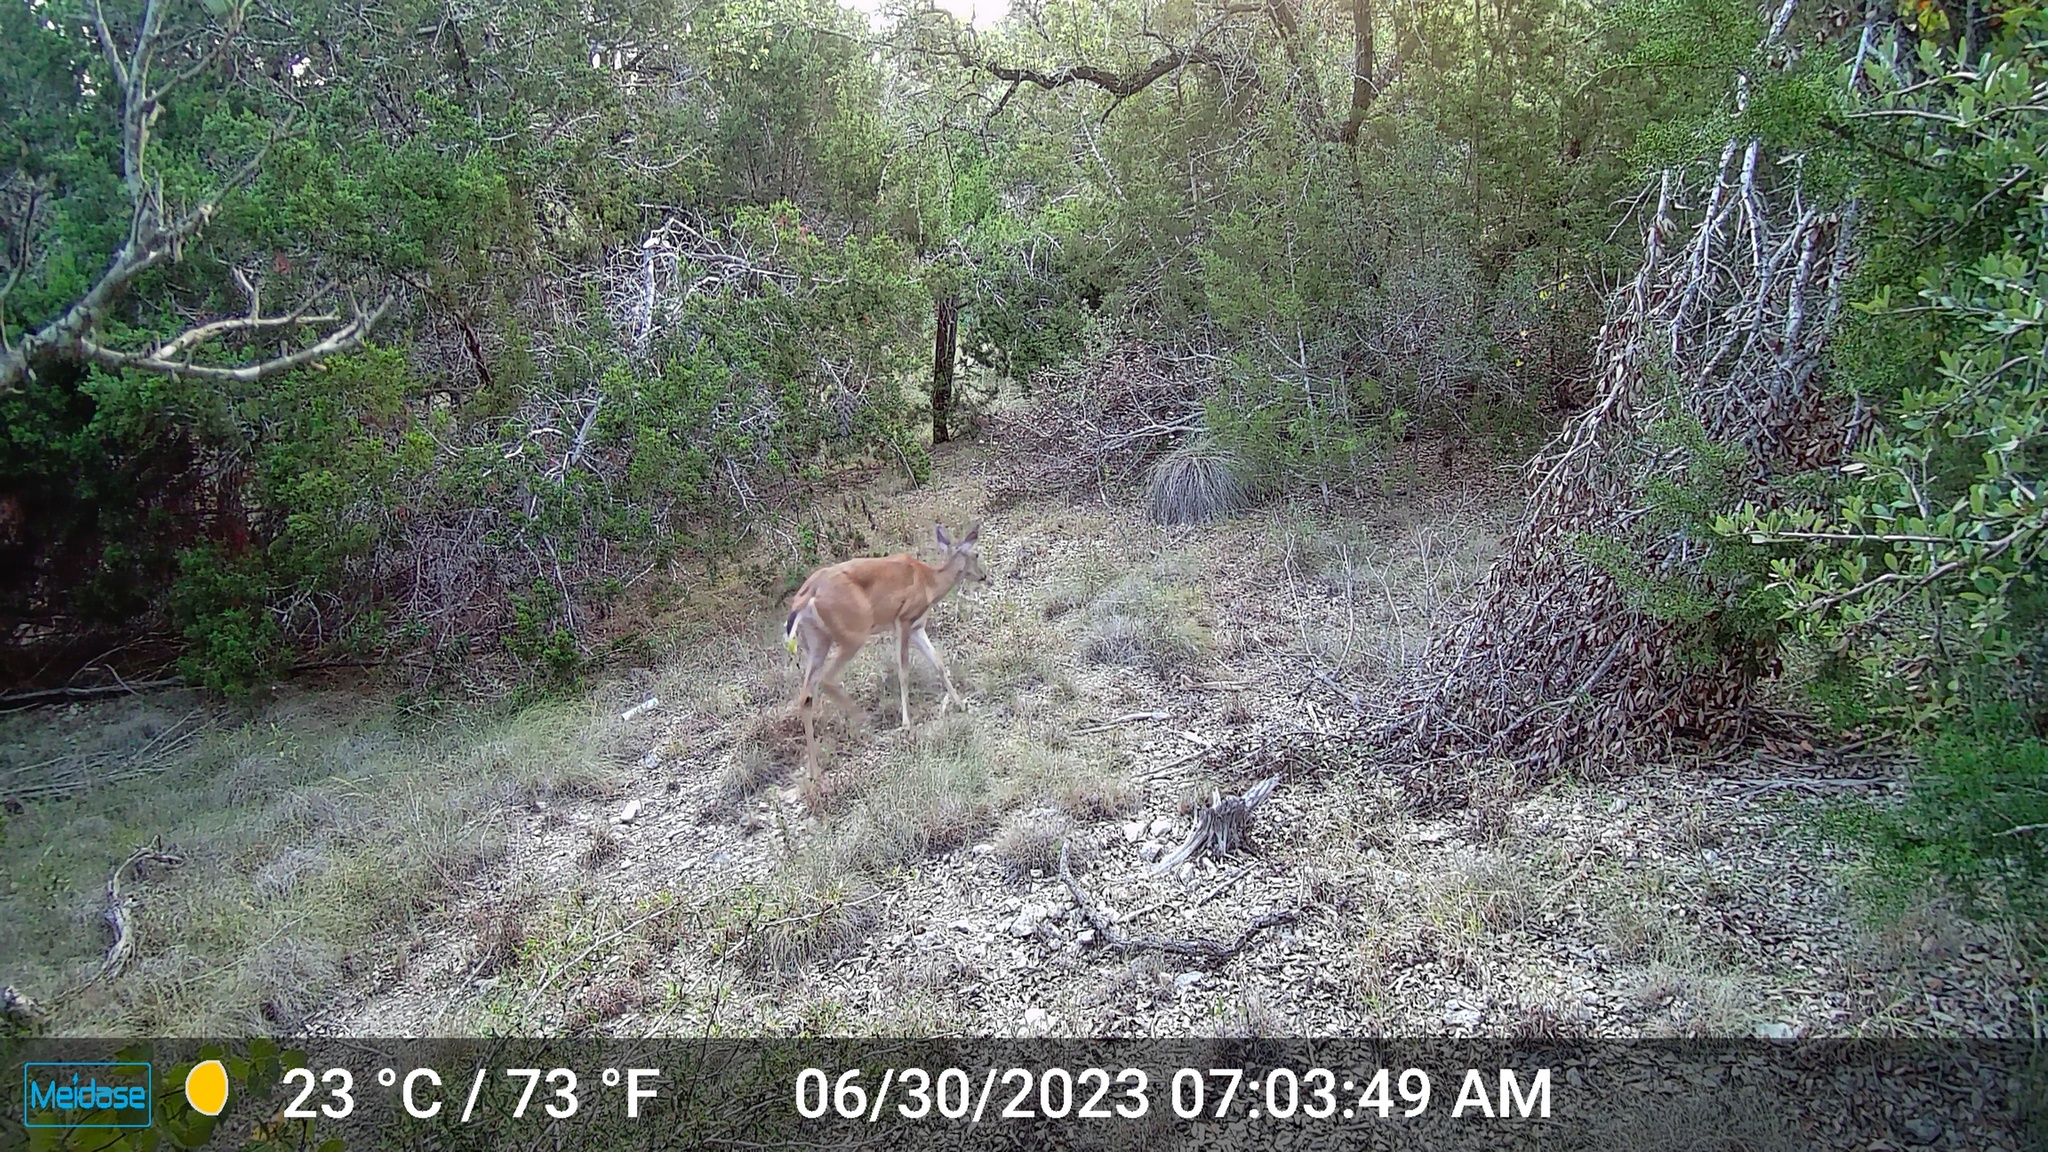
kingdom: Animalia
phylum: Chordata
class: Mammalia
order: Artiodactyla
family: Cervidae
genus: Odocoileus
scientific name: Odocoileus virginianus
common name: White-tailed deer
